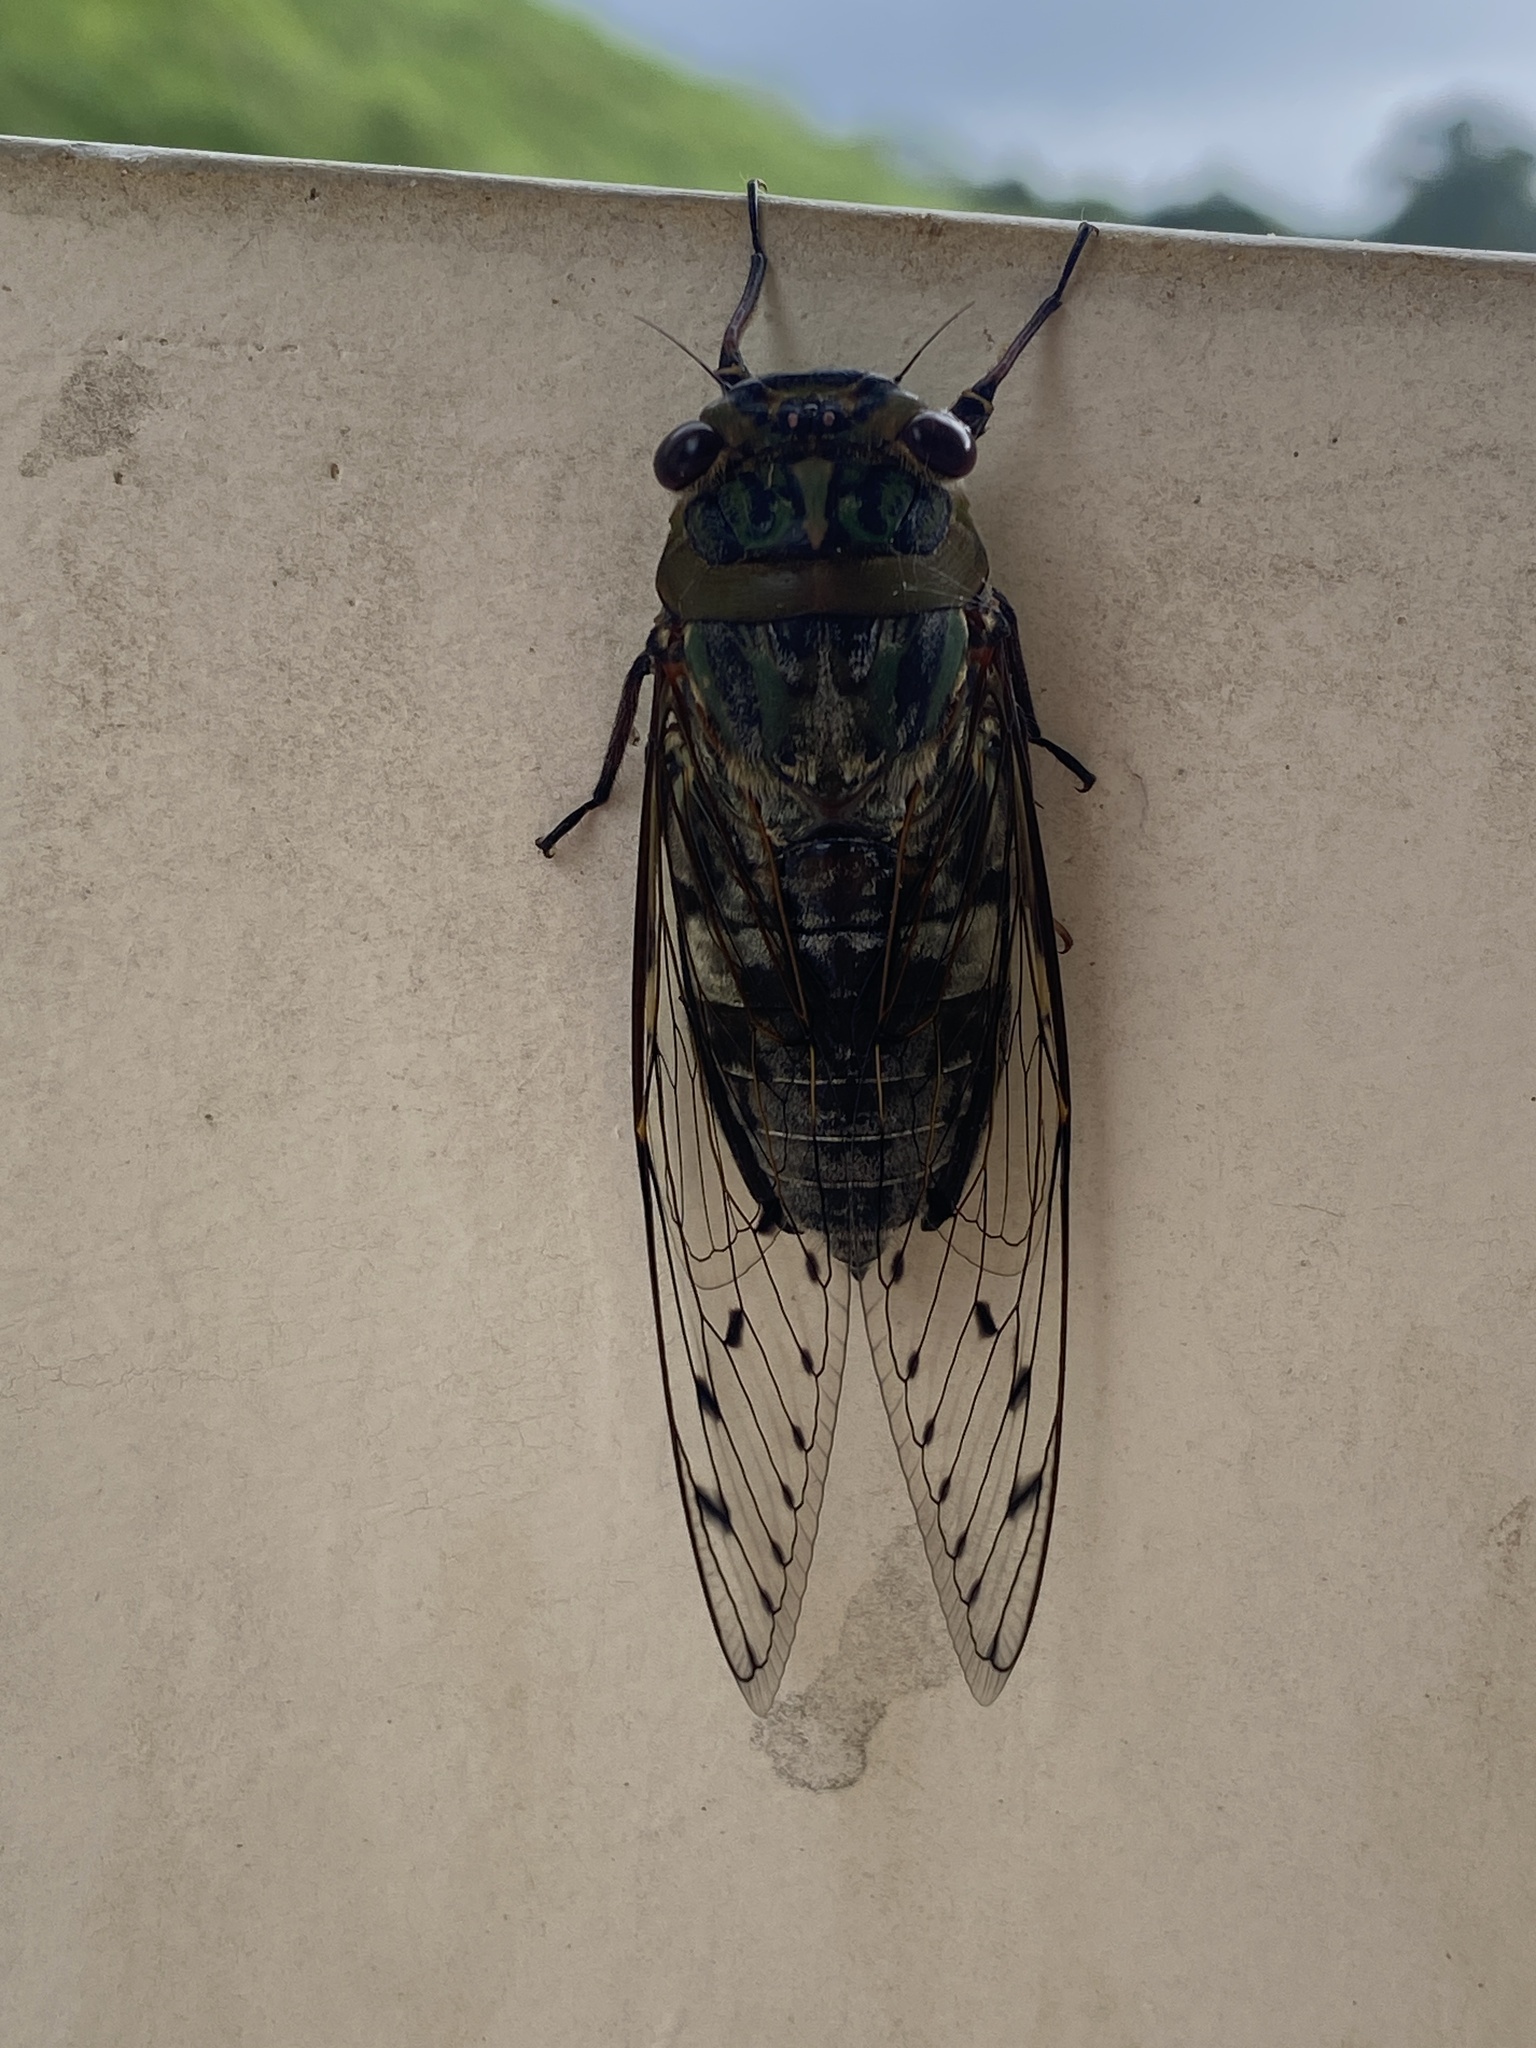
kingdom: Animalia
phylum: Arthropoda
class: Insecta
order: Hemiptera
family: Cicadidae
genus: Macrosemia
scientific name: Macrosemia lamdongensis
